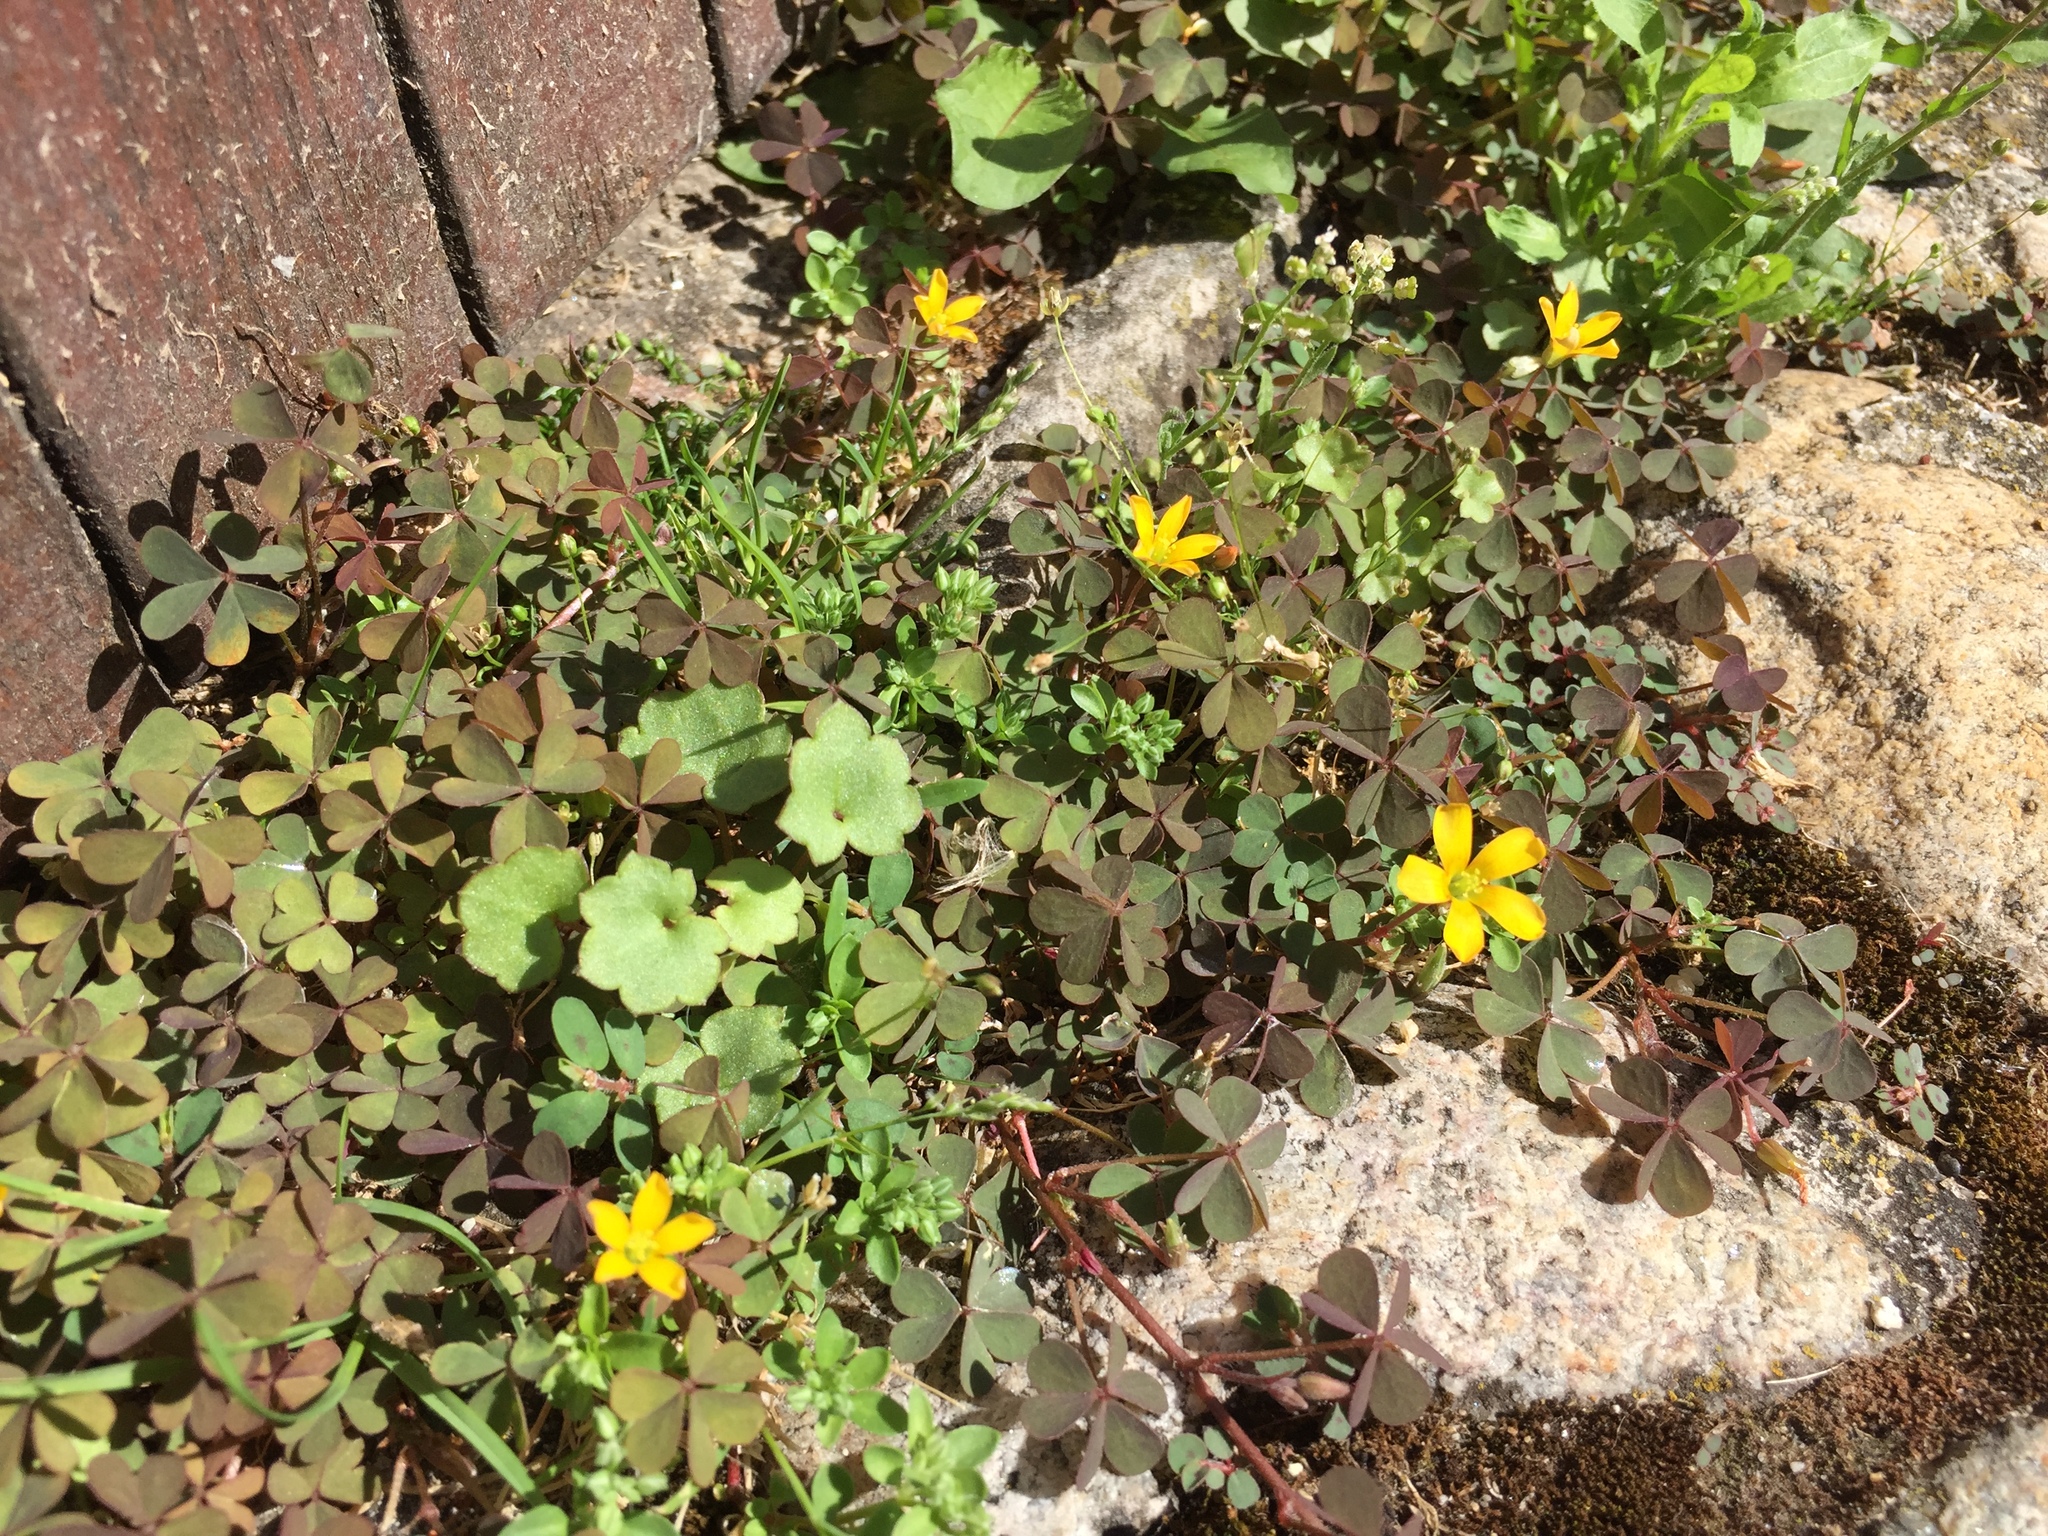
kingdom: Plantae
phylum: Tracheophyta
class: Magnoliopsida
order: Oxalidales
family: Oxalidaceae
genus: Oxalis
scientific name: Oxalis corniculata
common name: Procumbent yellow-sorrel
